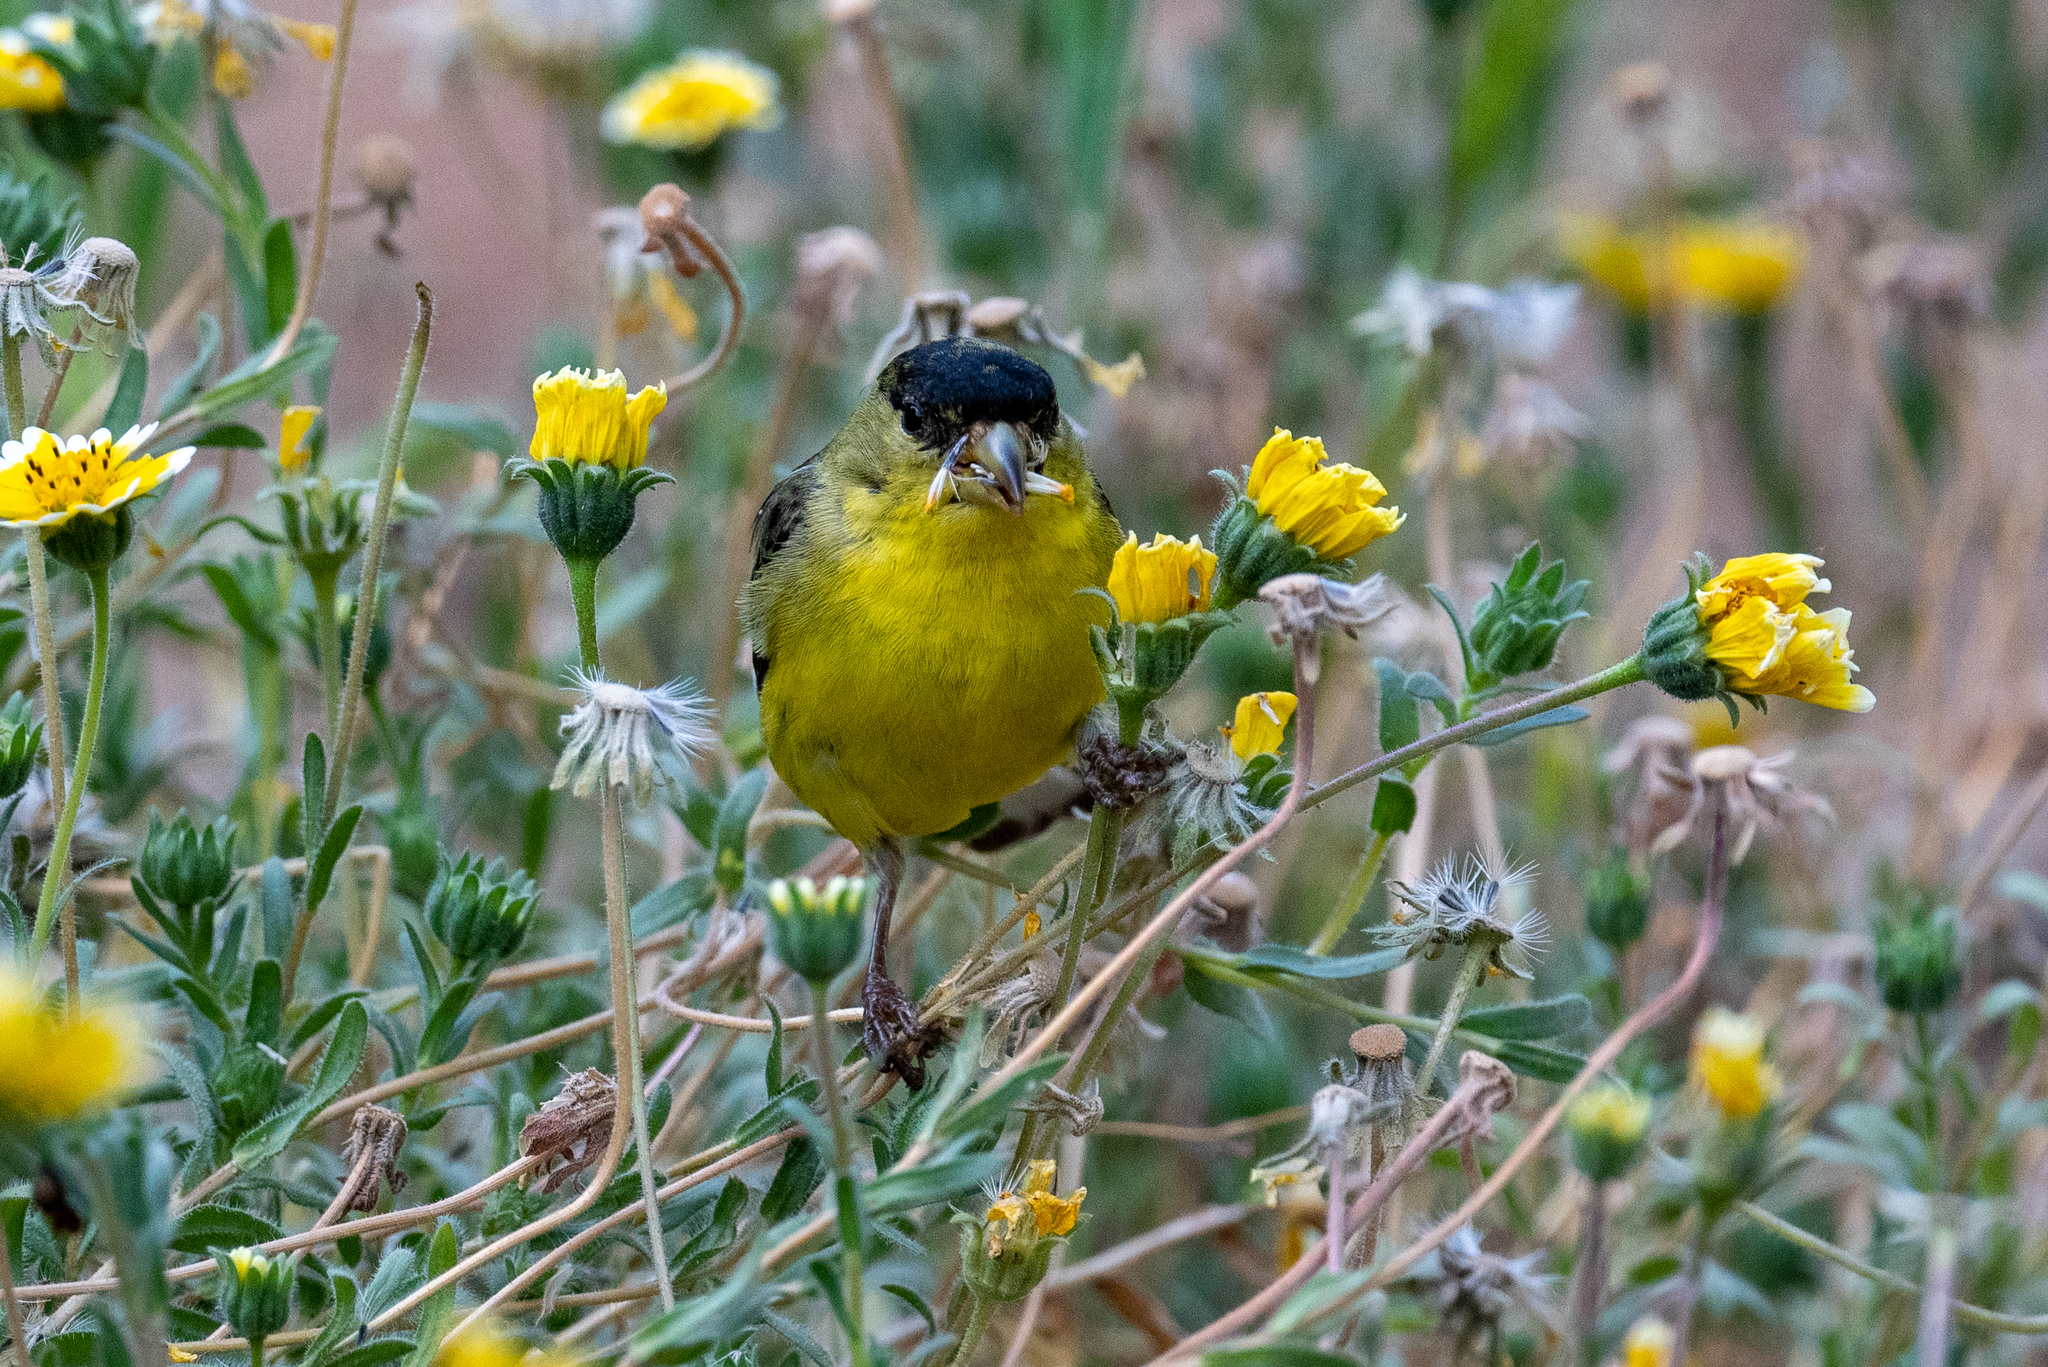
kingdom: Animalia
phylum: Chordata
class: Aves
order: Passeriformes
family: Fringillidae
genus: Spinus
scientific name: Spinus psaltria
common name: Lesser goldfinch
